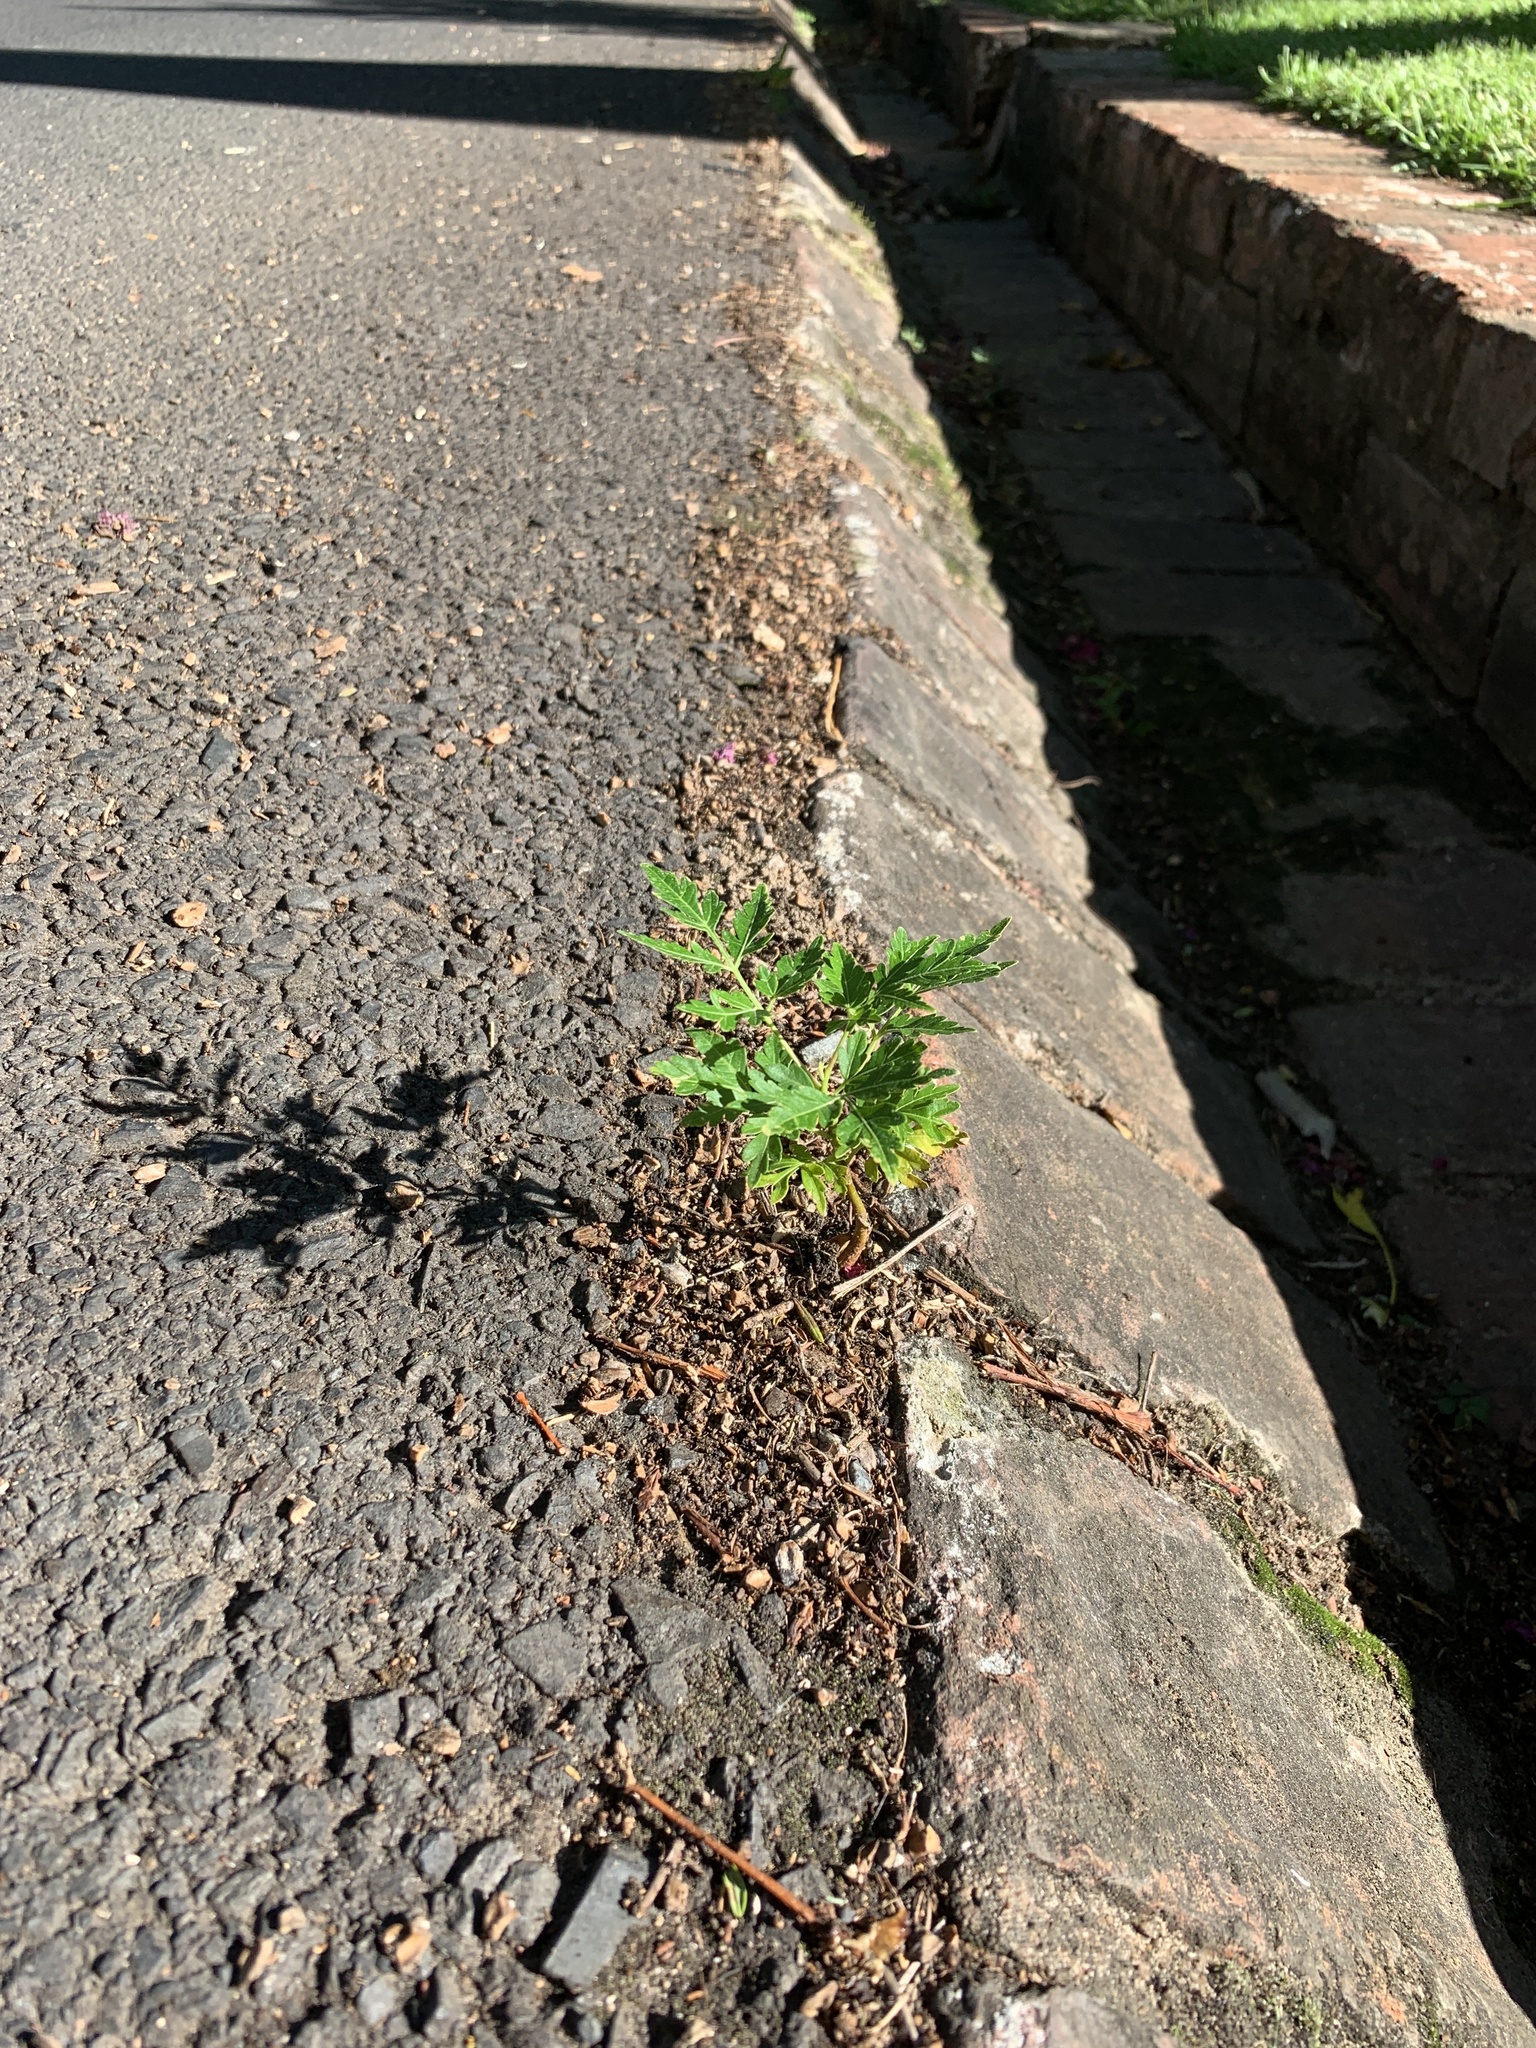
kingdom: Plantae
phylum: Tracheophyta
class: Magnoliopsida
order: Sapindales
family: Meliaceae
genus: Melia
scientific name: Melia azedarach
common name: Chinaberrytree
